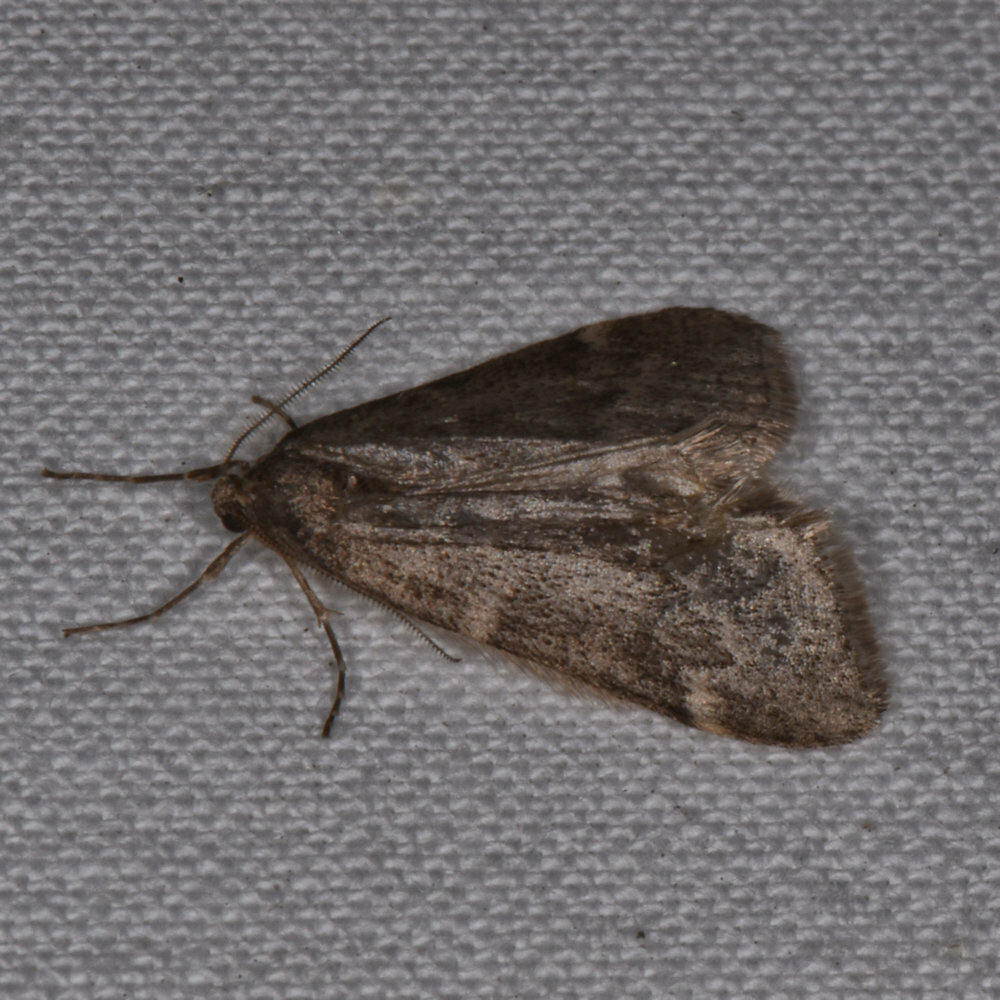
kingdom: Animalia
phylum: Arthropoda
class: Insecta
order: Lepidoptera
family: Geometridae
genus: Alsophila
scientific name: Alsophila pometaria
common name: Fall cankerworm
